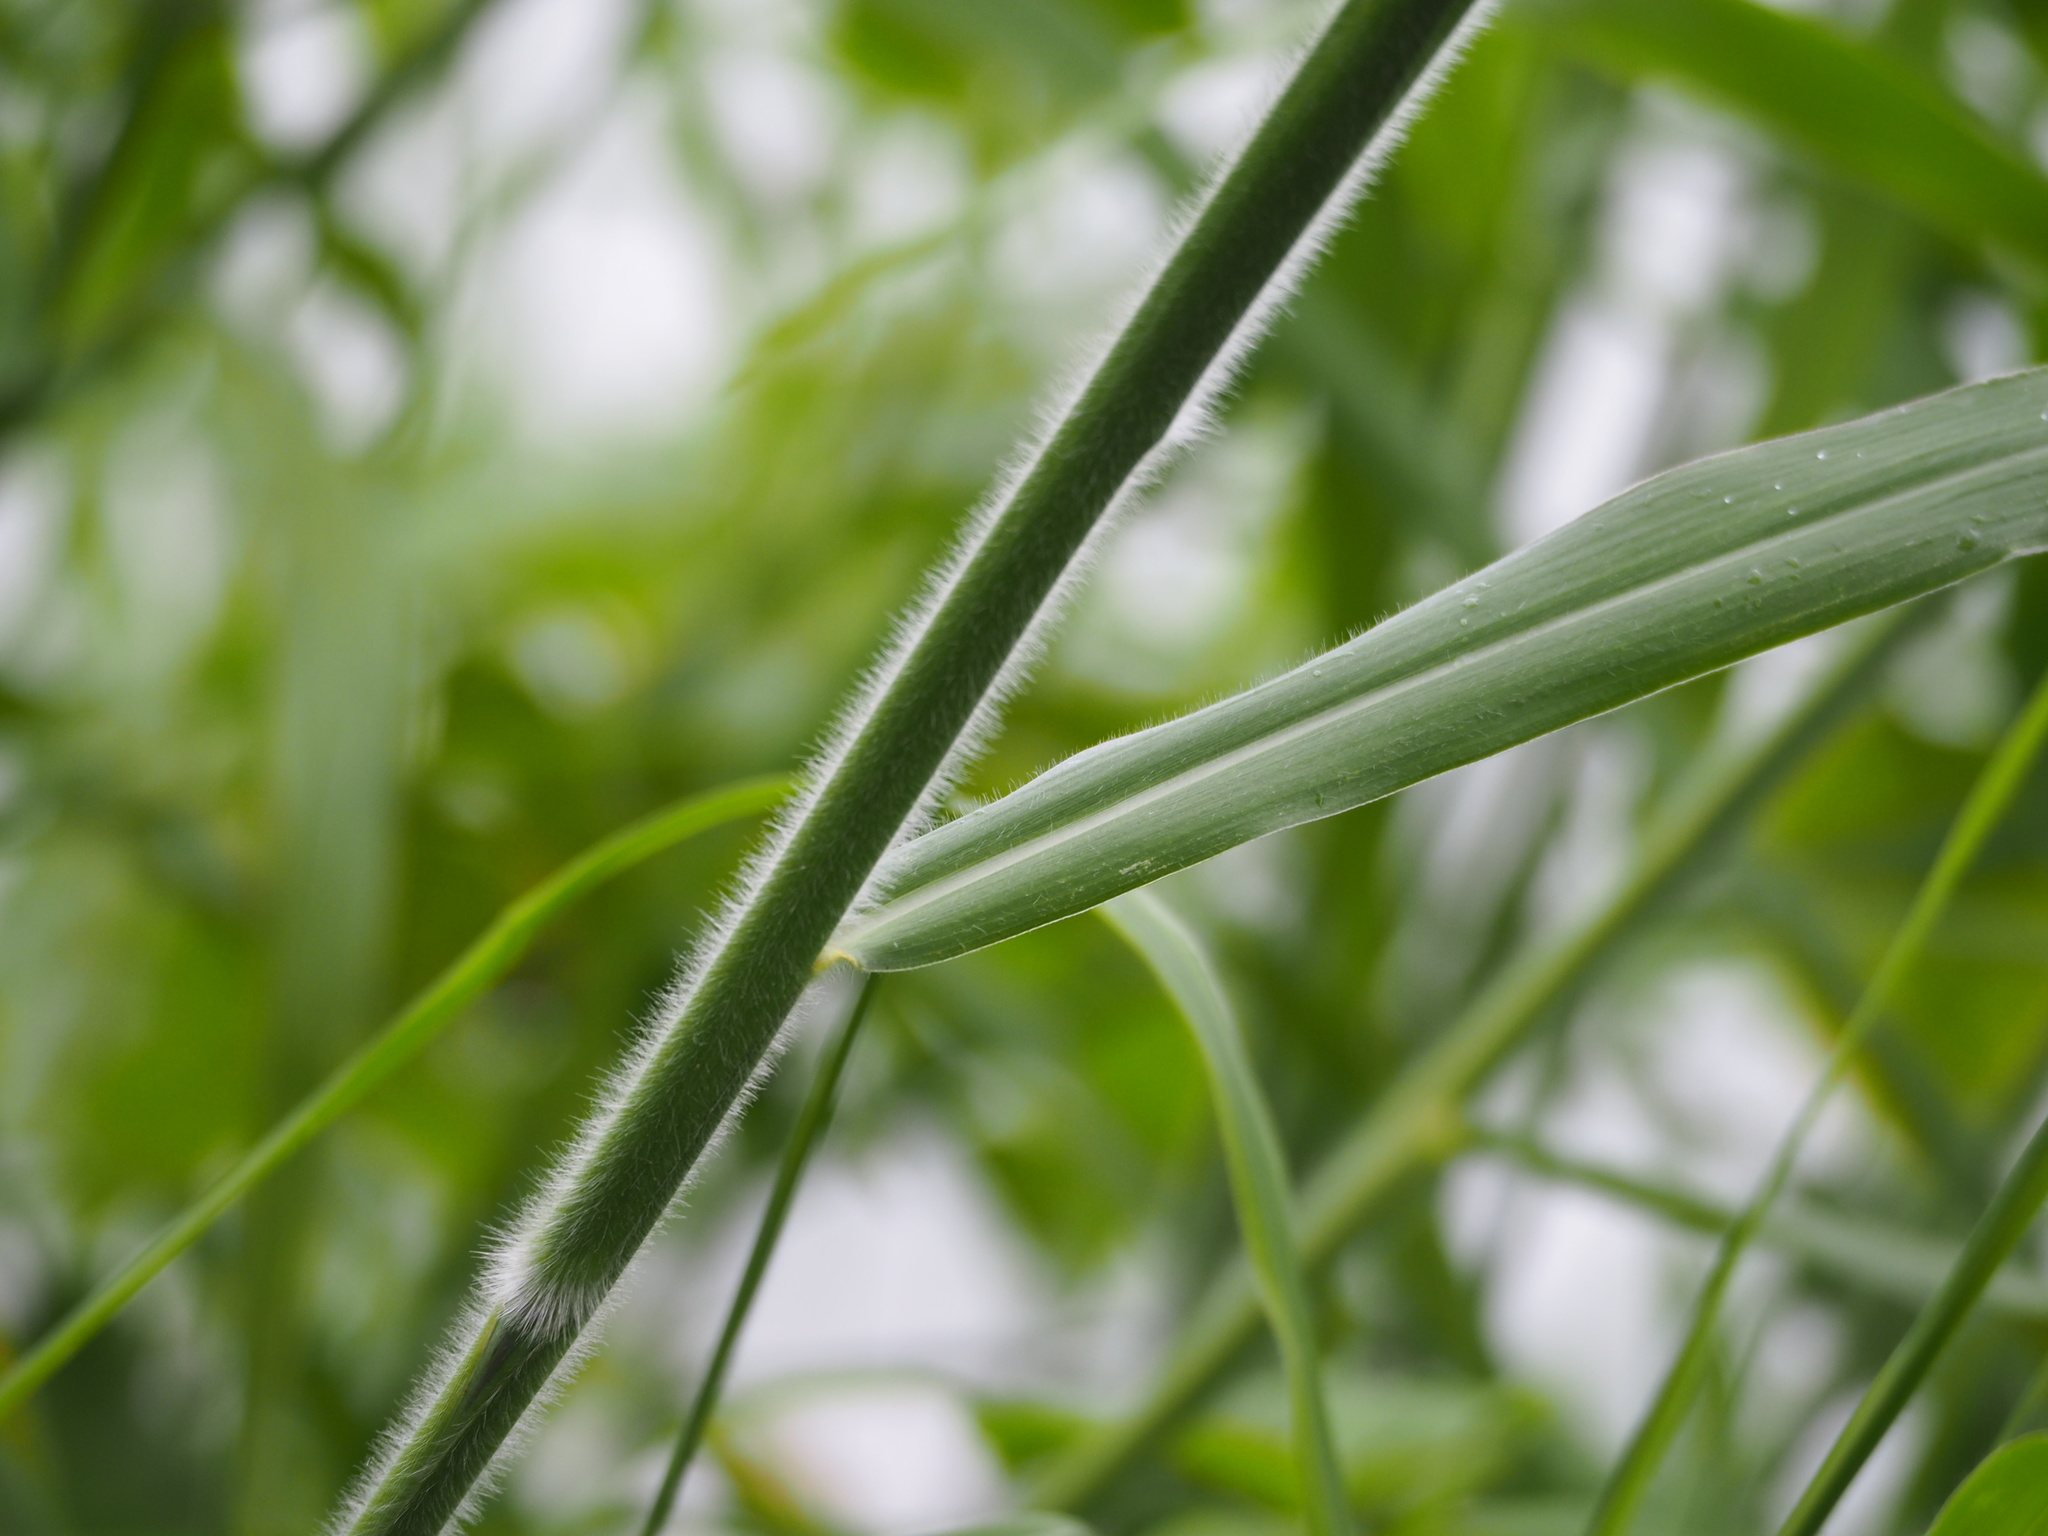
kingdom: Plantae
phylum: Tracheophyta
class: Liliopsida
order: Poales
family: Poaceae
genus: Urochloa
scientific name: Urochloa mutica
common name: Para grass
